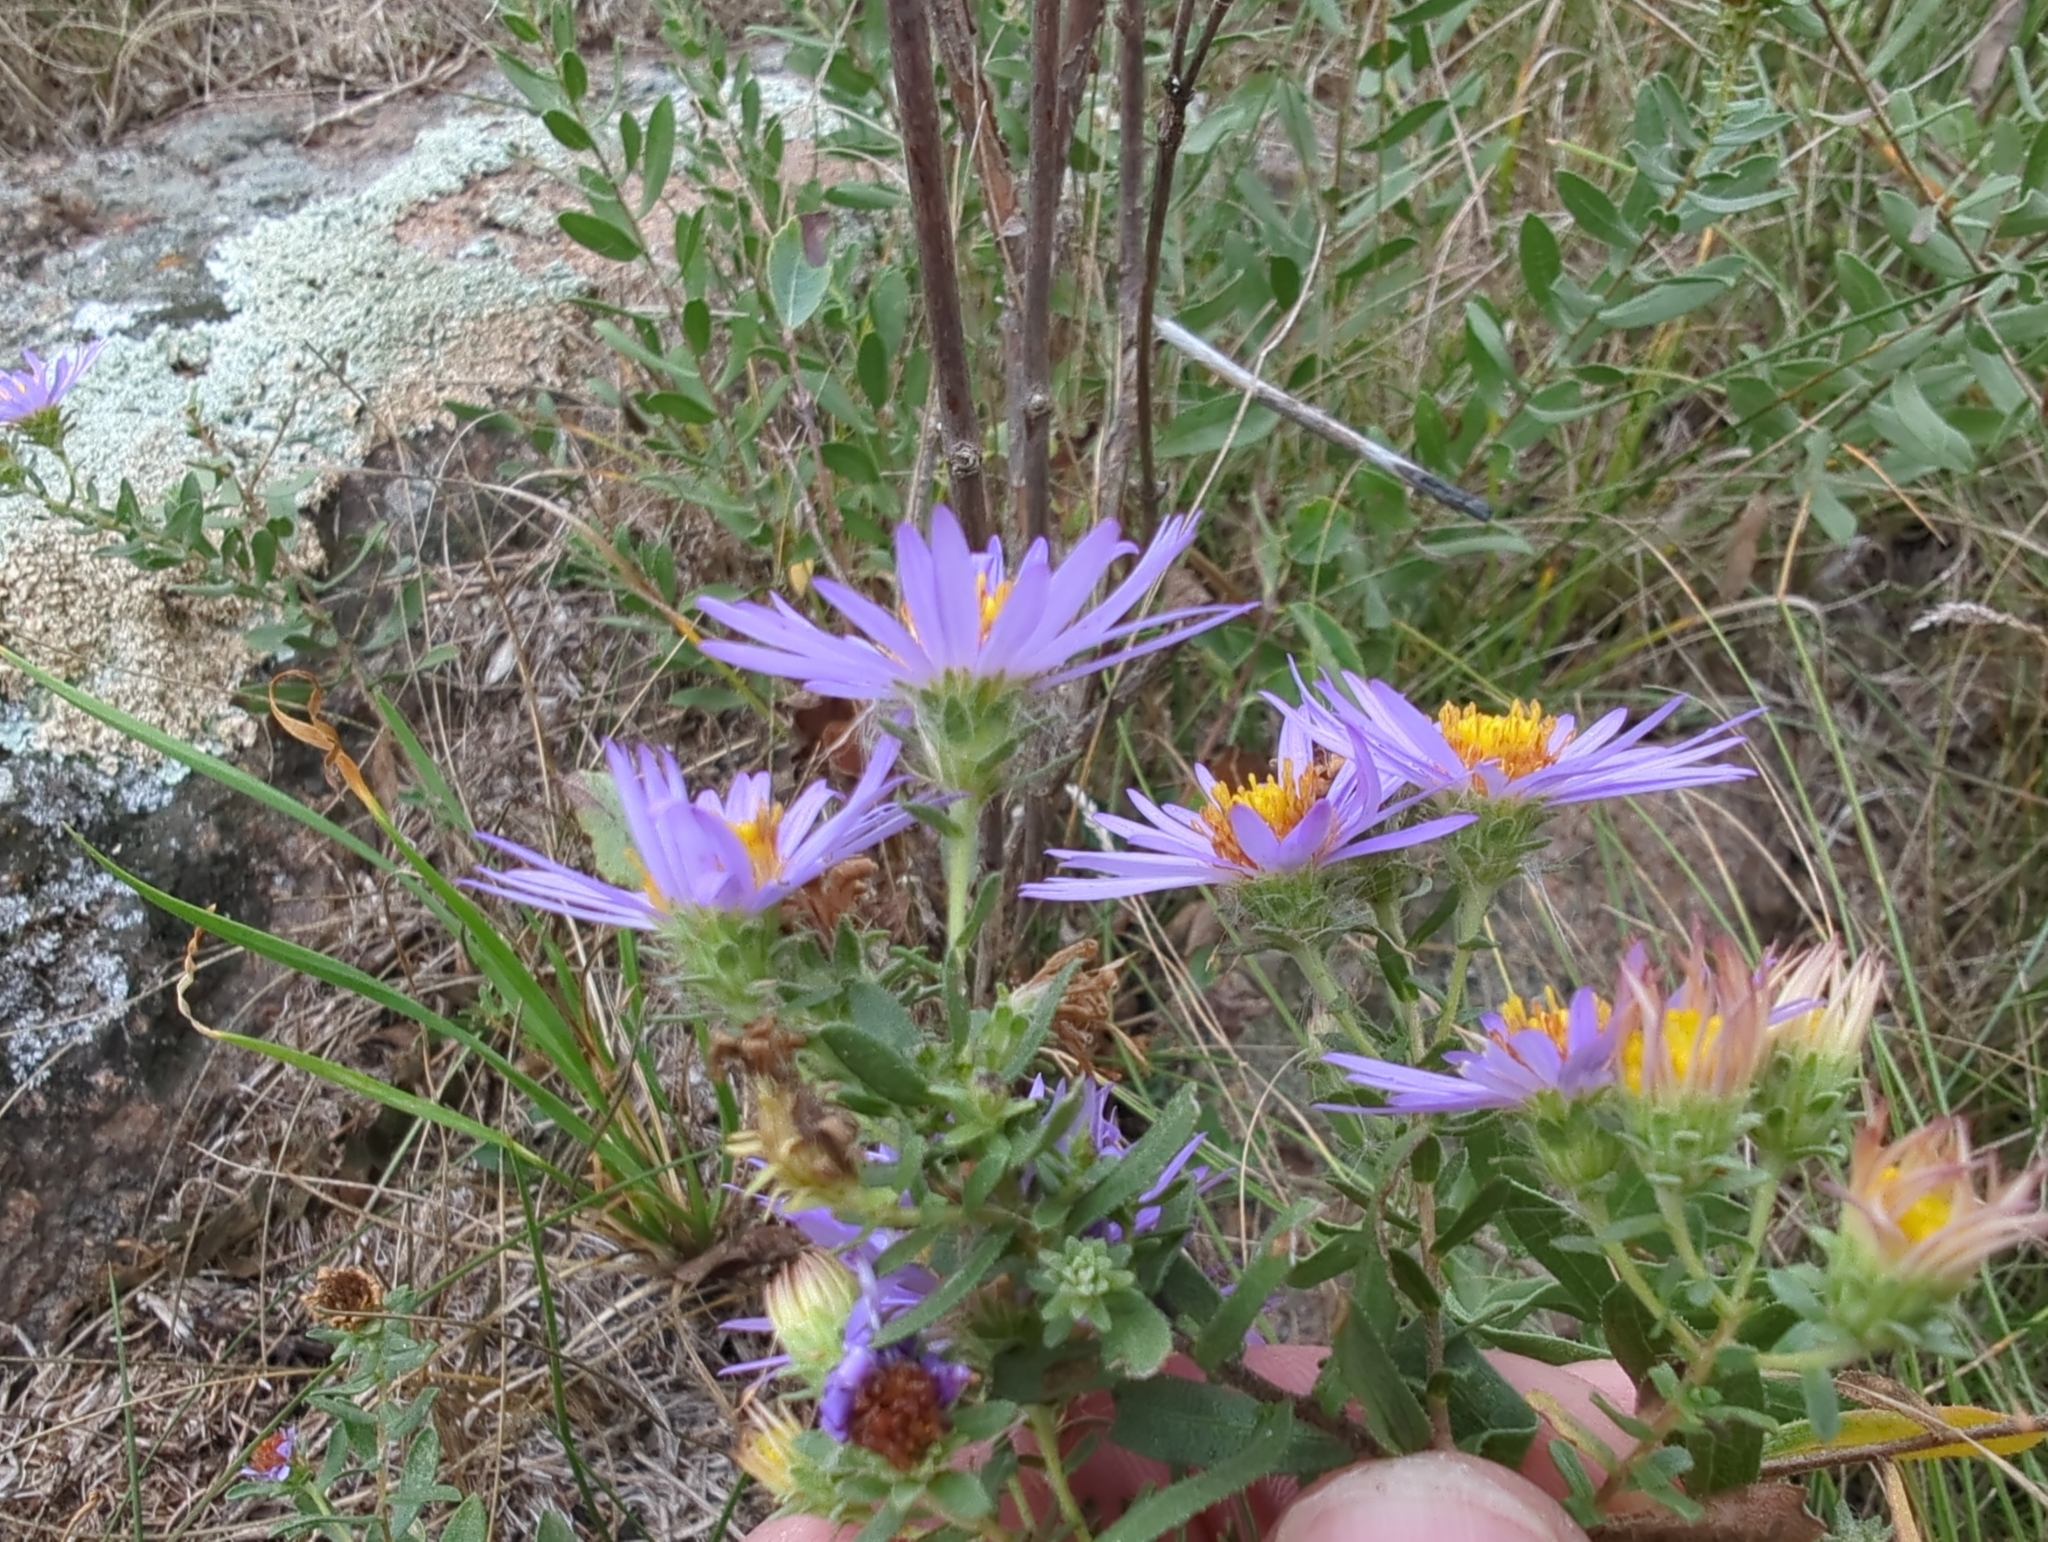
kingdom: Plantae
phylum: Tracheophyta
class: Magnoliopsida
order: Asterales
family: Asteraceae
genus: Symphyotrichum
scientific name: Symphyotrichum oblongifolium
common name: Aromatic aster
